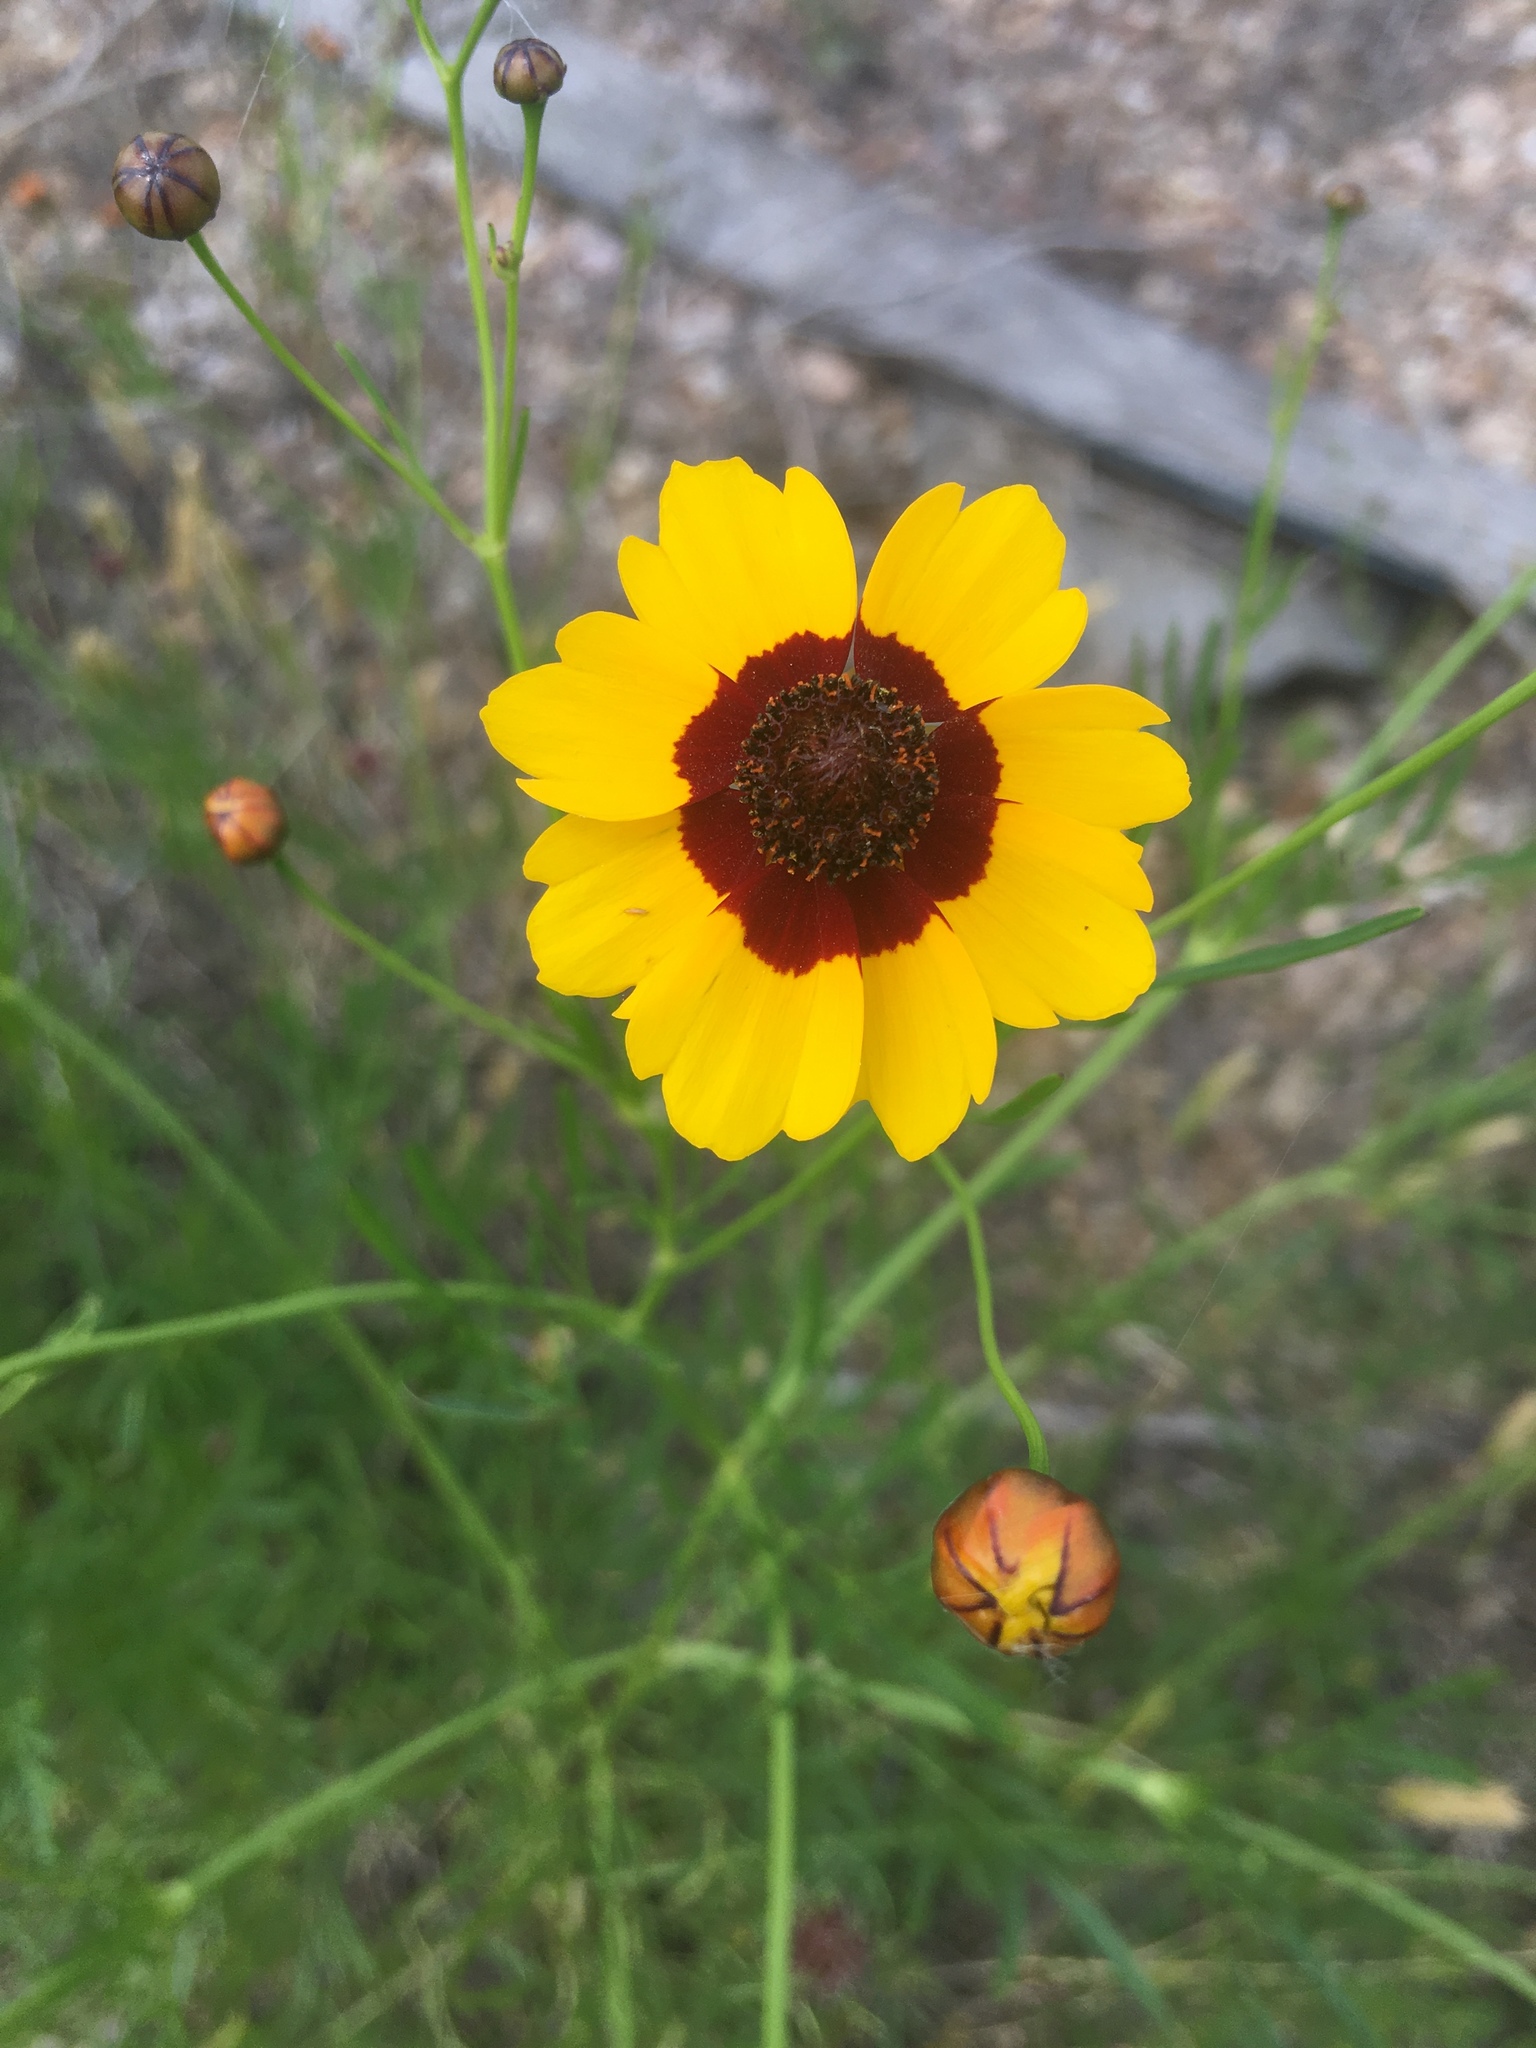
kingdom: Plantae
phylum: Tracheophyta
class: Magnoliopsida
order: Asterales
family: Asteraceae
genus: Coreopsis
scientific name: Coreopsis tinctoria
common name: Garden tickseed
